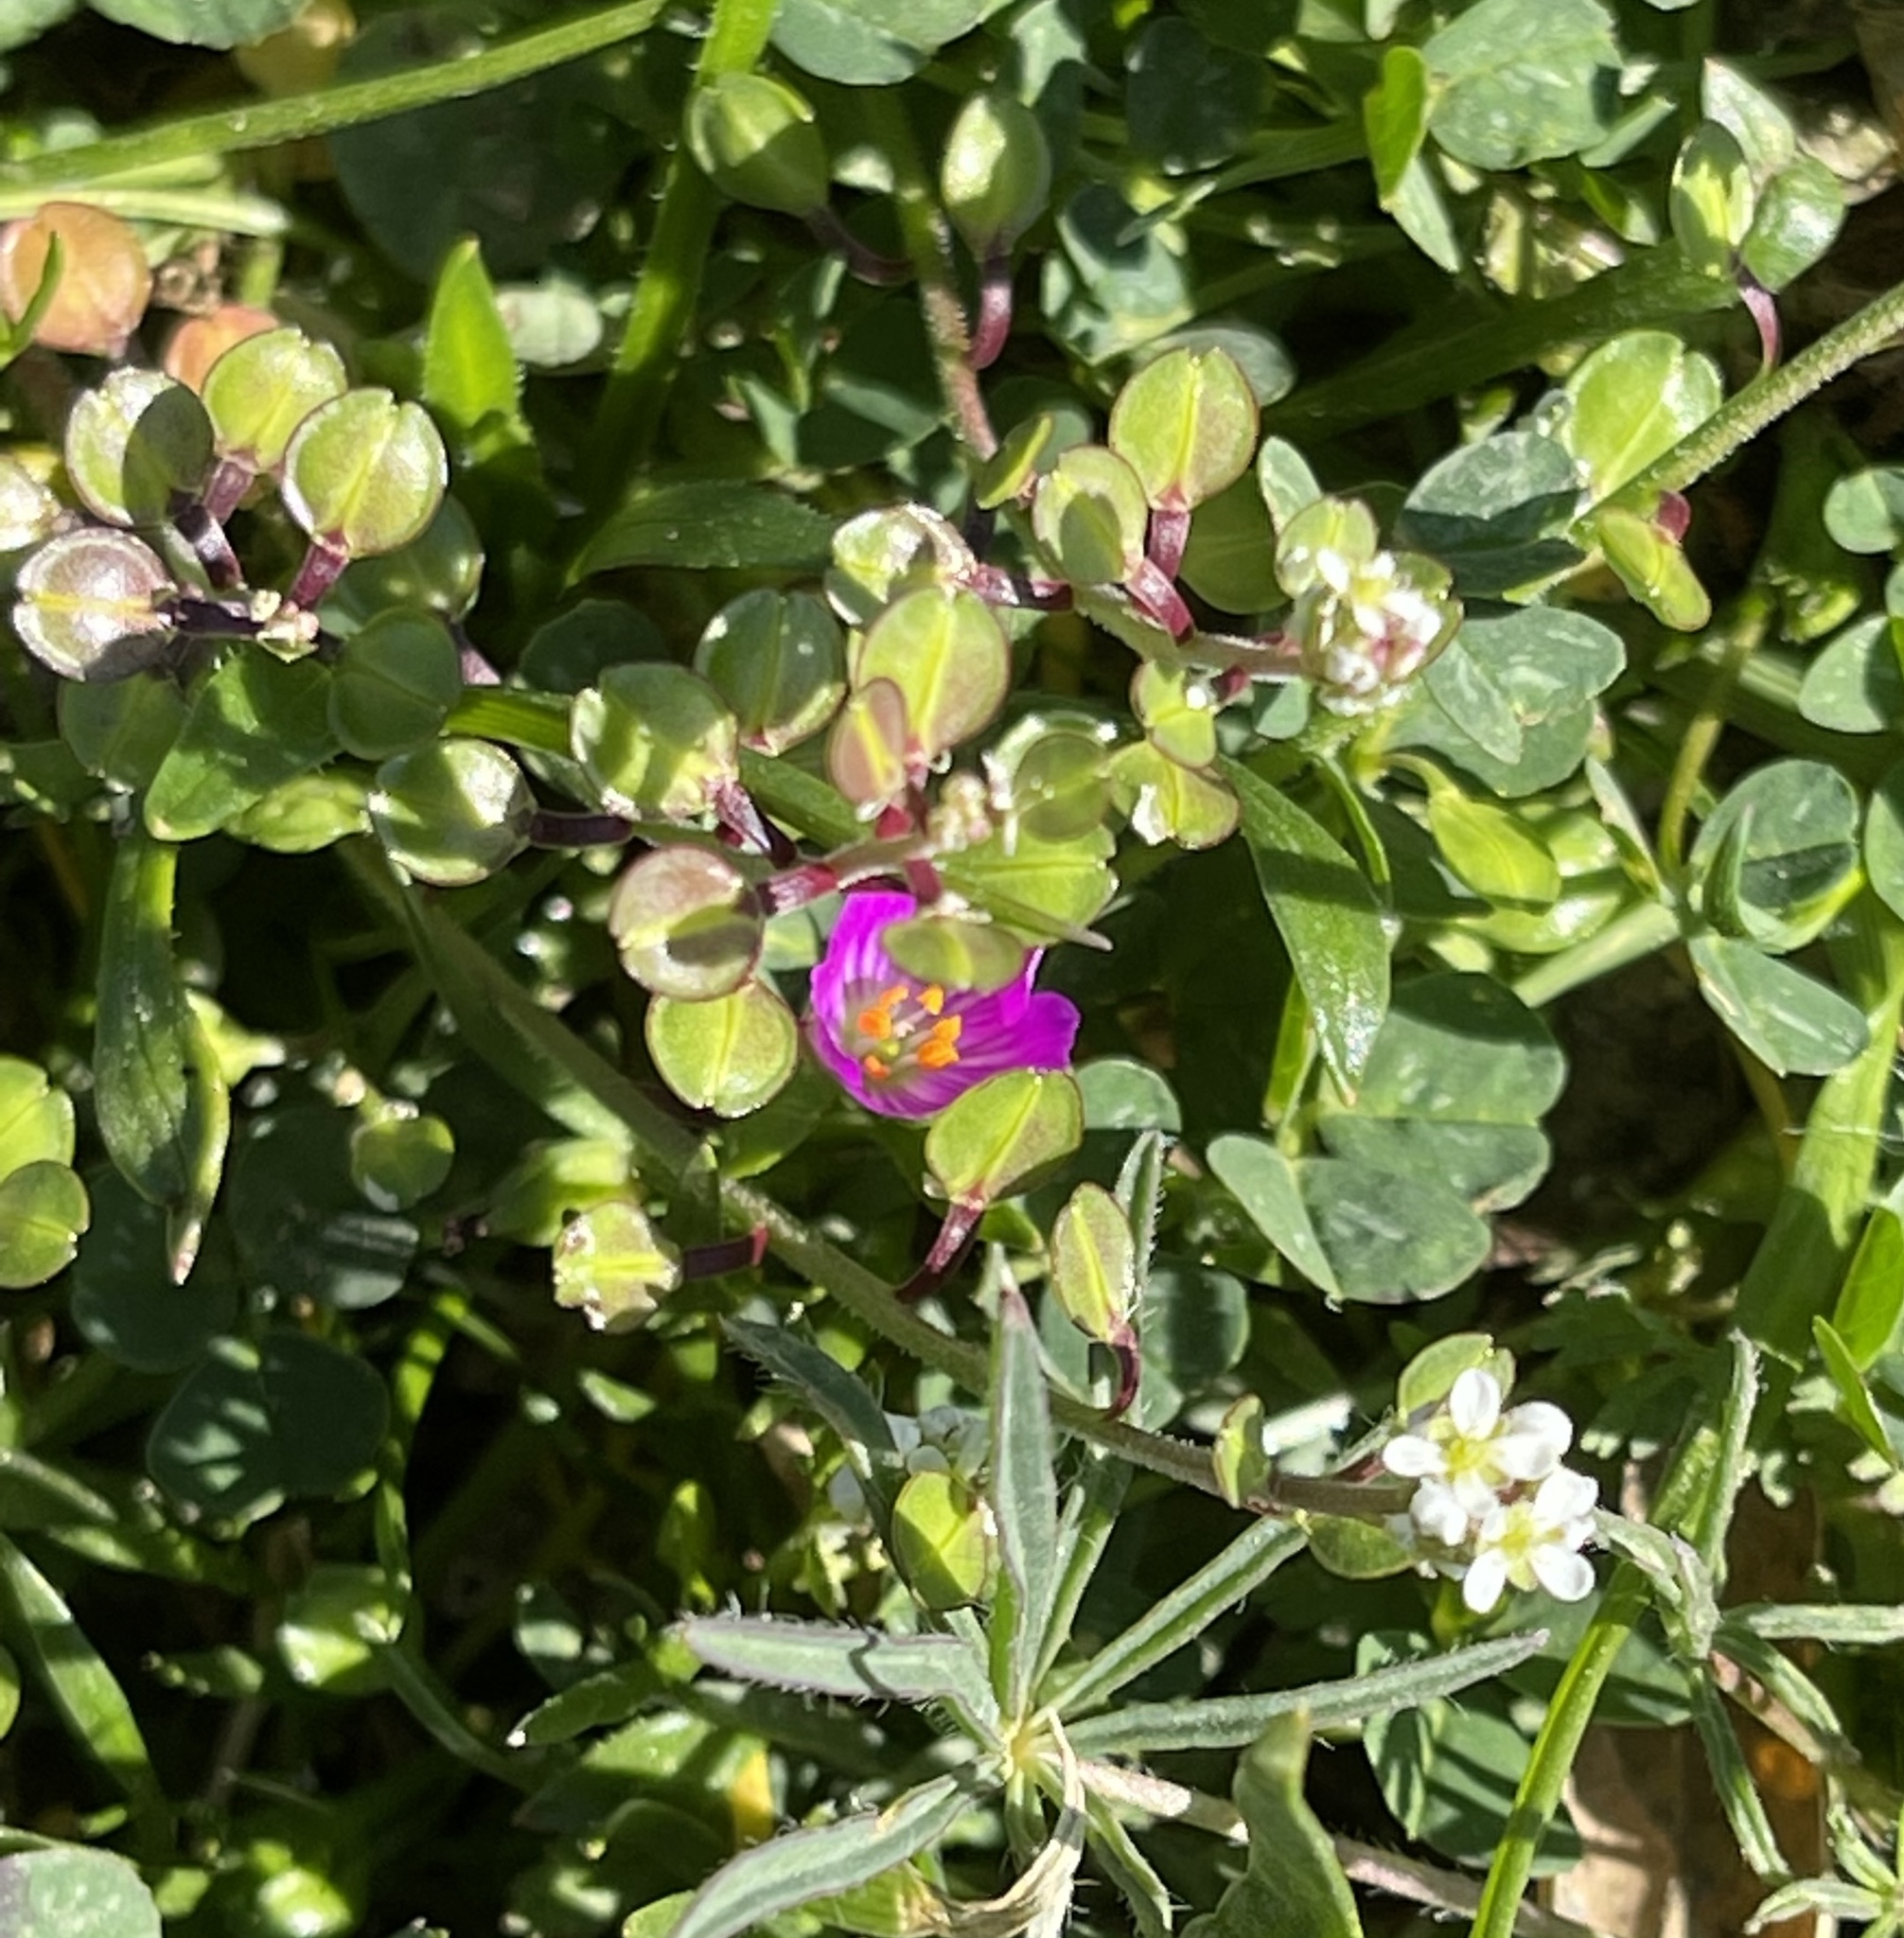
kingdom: Plantae
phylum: Tracheophyta
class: Magnoliopsida
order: Brassicales
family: Brassicaceae
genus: Lepidium
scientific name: Lepidium nitidum
